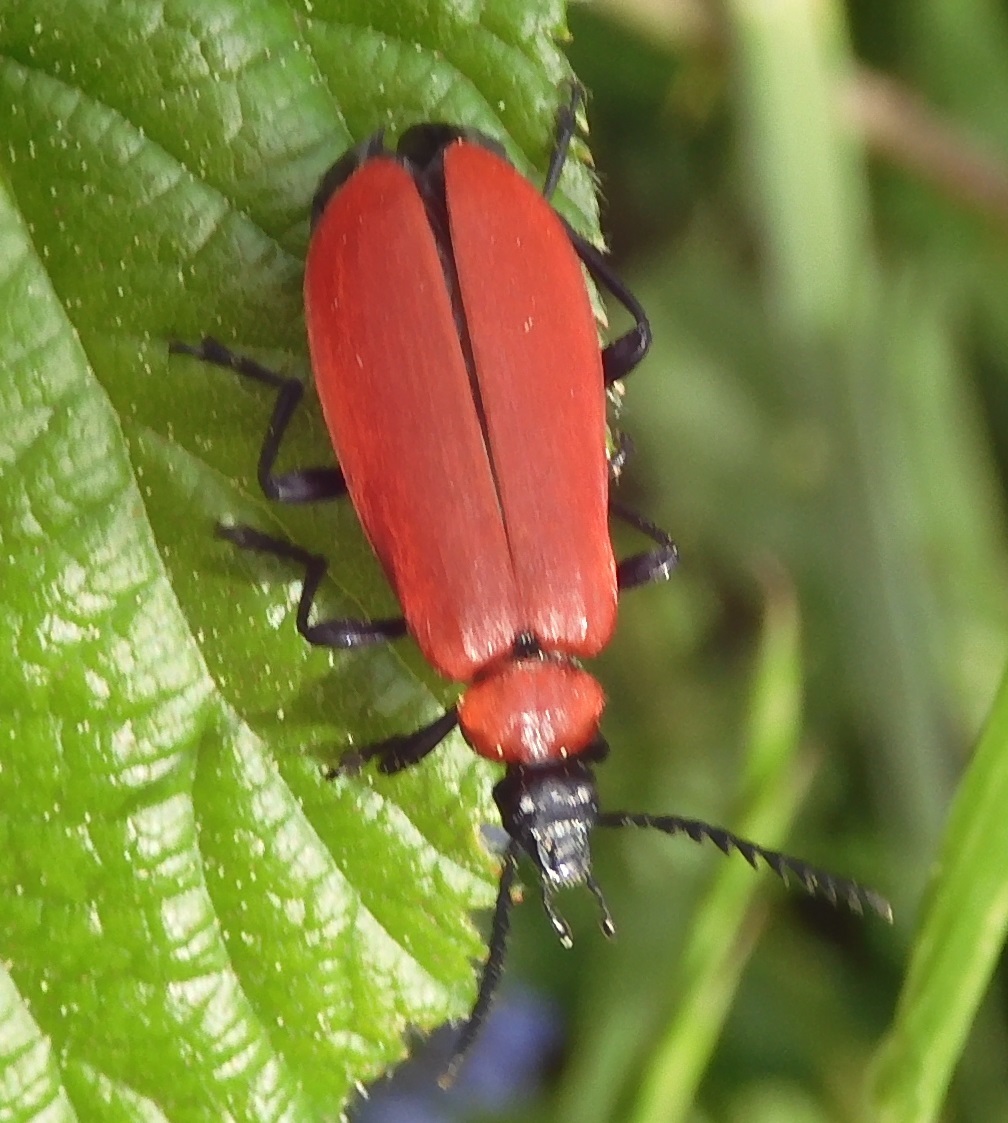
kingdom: Animalia
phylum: Arthropoda
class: Insecta
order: Coleoptera
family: Pyrochroidae
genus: Pyrochroa
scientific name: Pyrochroa coccinea
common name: Black-headed cardinal beetle
